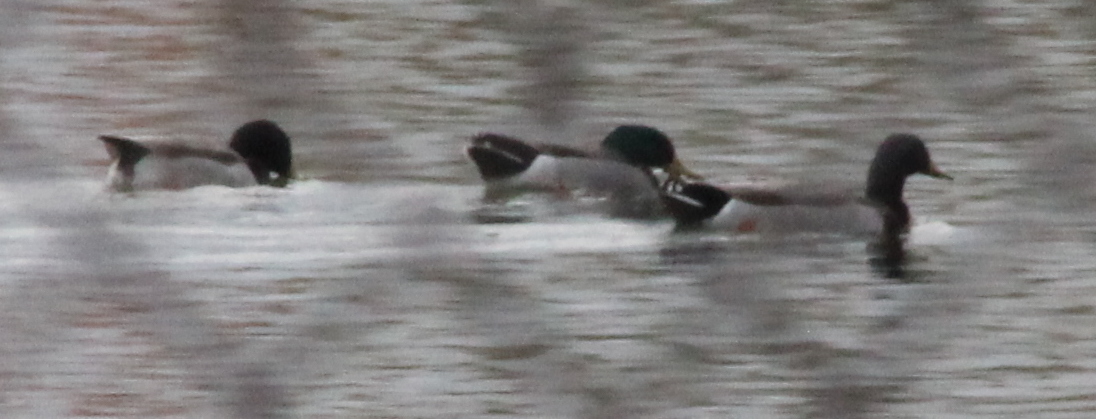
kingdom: Animalia
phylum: Chordata
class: Aves
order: Anseriformes
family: Anatidae
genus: Anas
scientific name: Anas platyrhynchos
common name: Mallard
